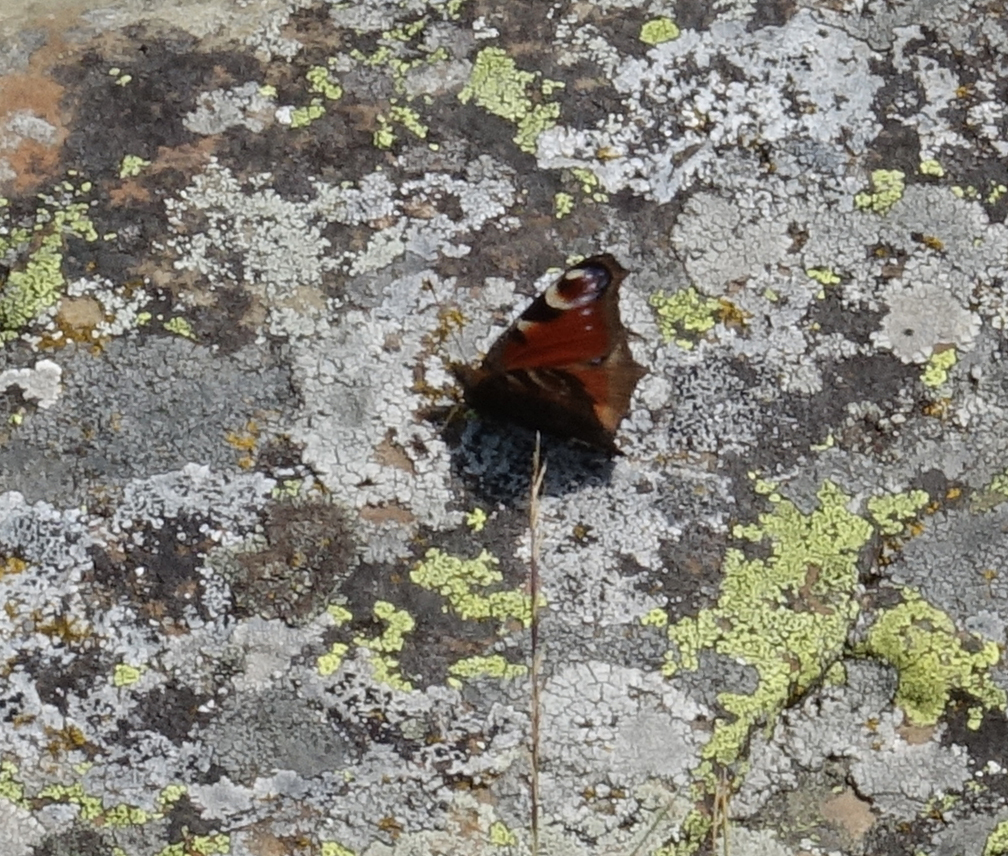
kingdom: Animalia
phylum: Arthropoda
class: Insecta
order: Lepidoptera
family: Nymphalidae
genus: Aglais
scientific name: Aglais io
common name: Peacock
